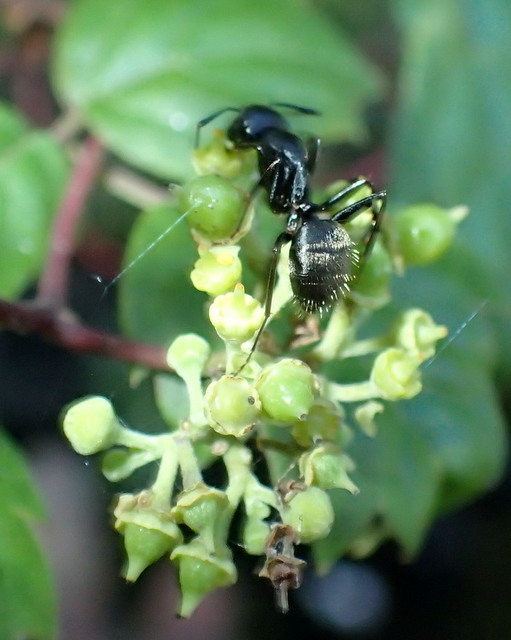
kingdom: Animalia
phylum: Arthropoda
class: Insecta
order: Hymenoptera
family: Formicidae
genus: Camponotus
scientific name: Camponotus pennsylvanicus
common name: Black carpenter ant
